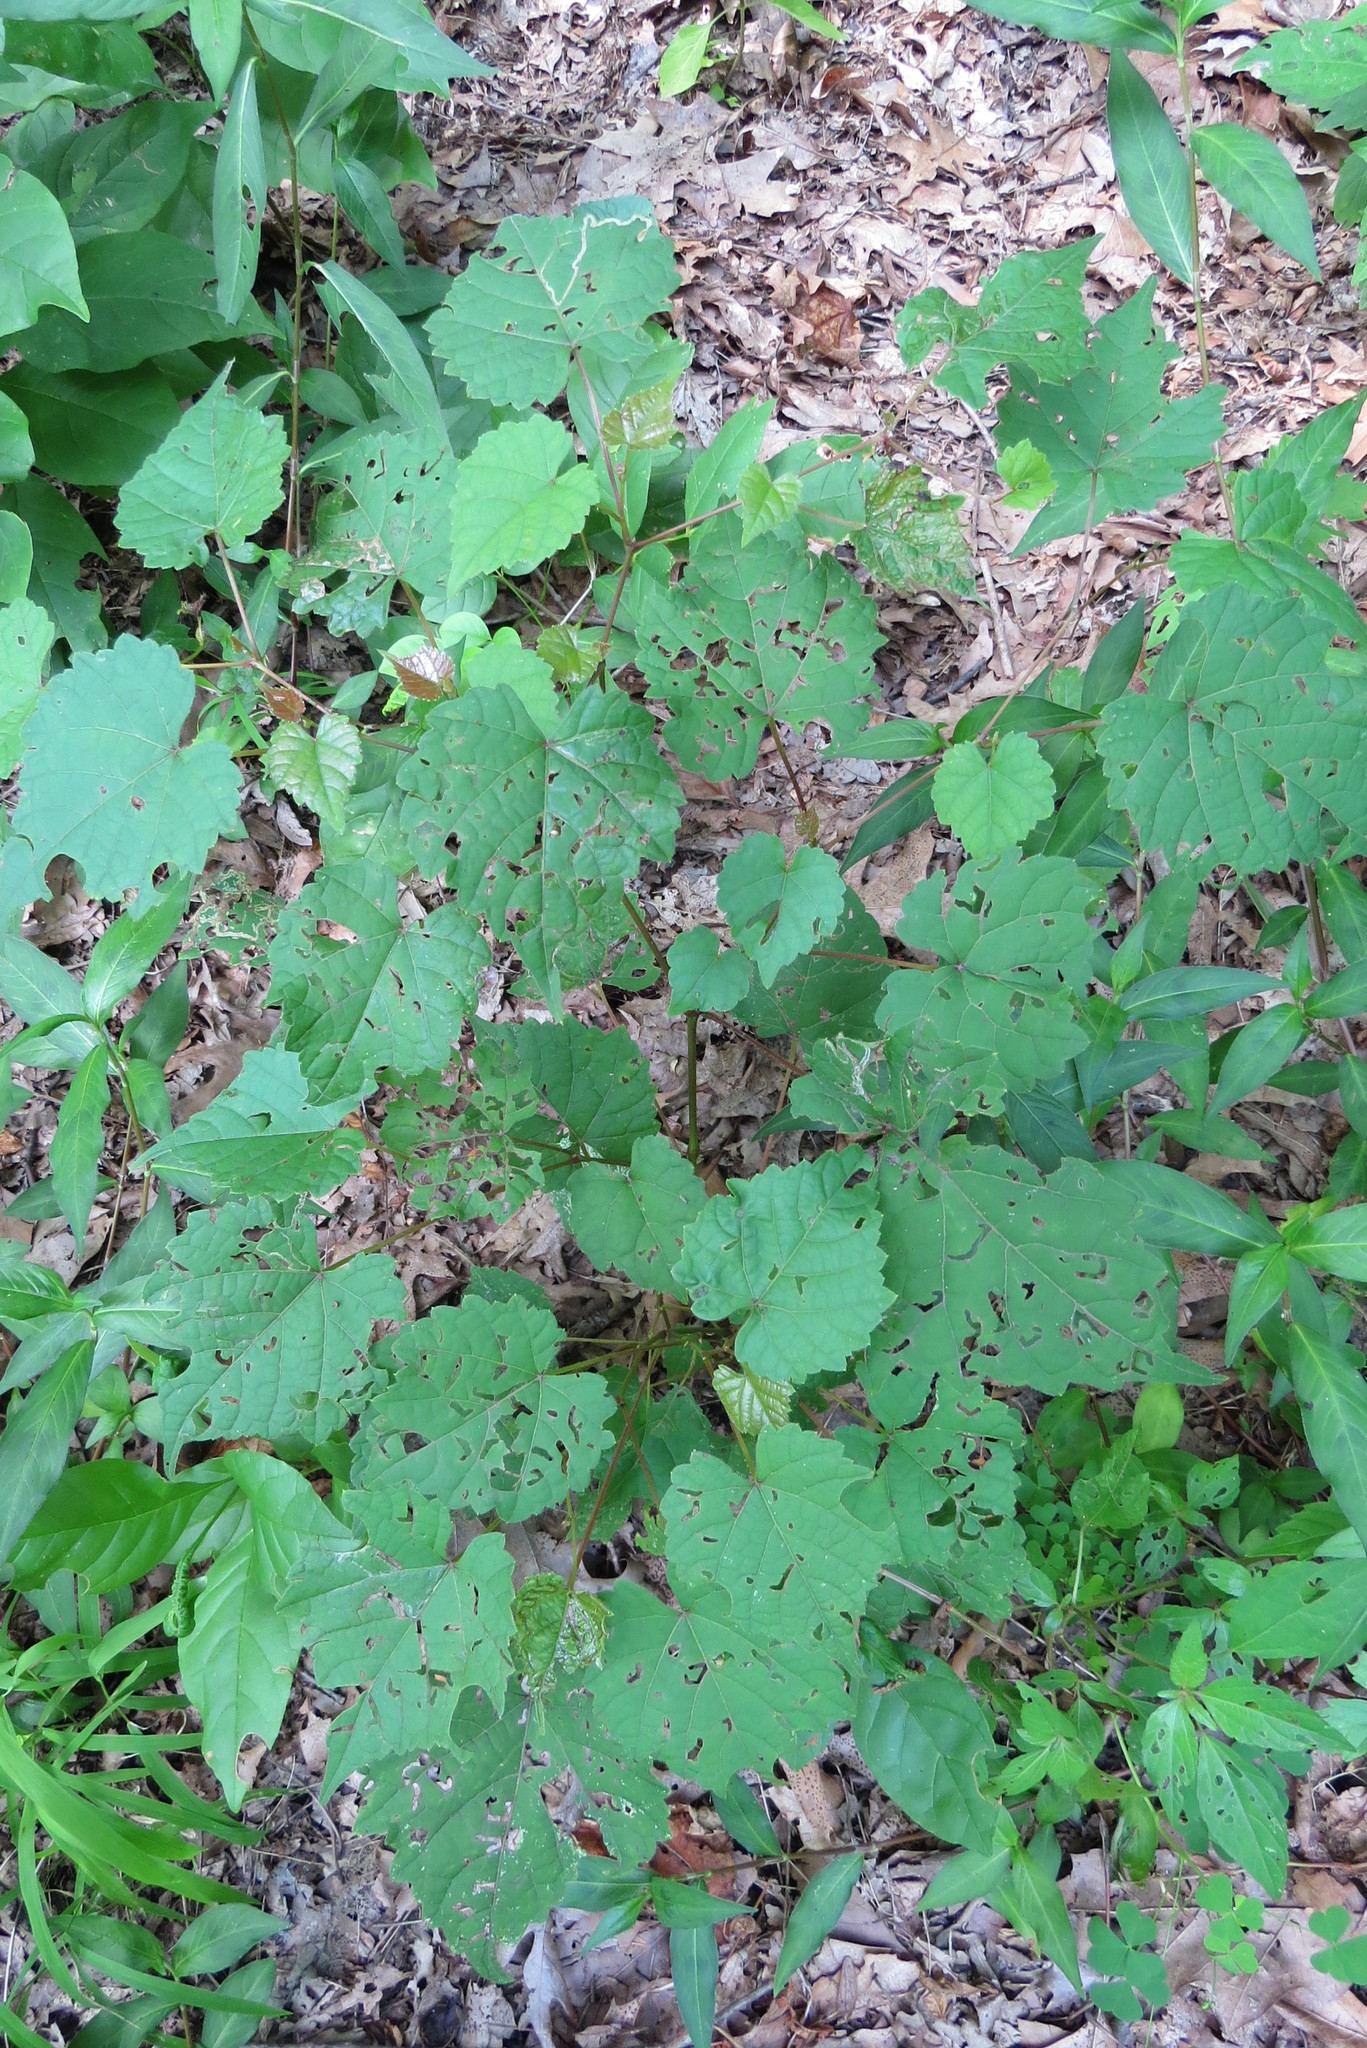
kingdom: Plantae
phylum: Tracheophyta
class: Magnoliopsida
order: Vitales
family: Vitaceae
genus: Vitis
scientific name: Vitis riparia
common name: Frost grape
